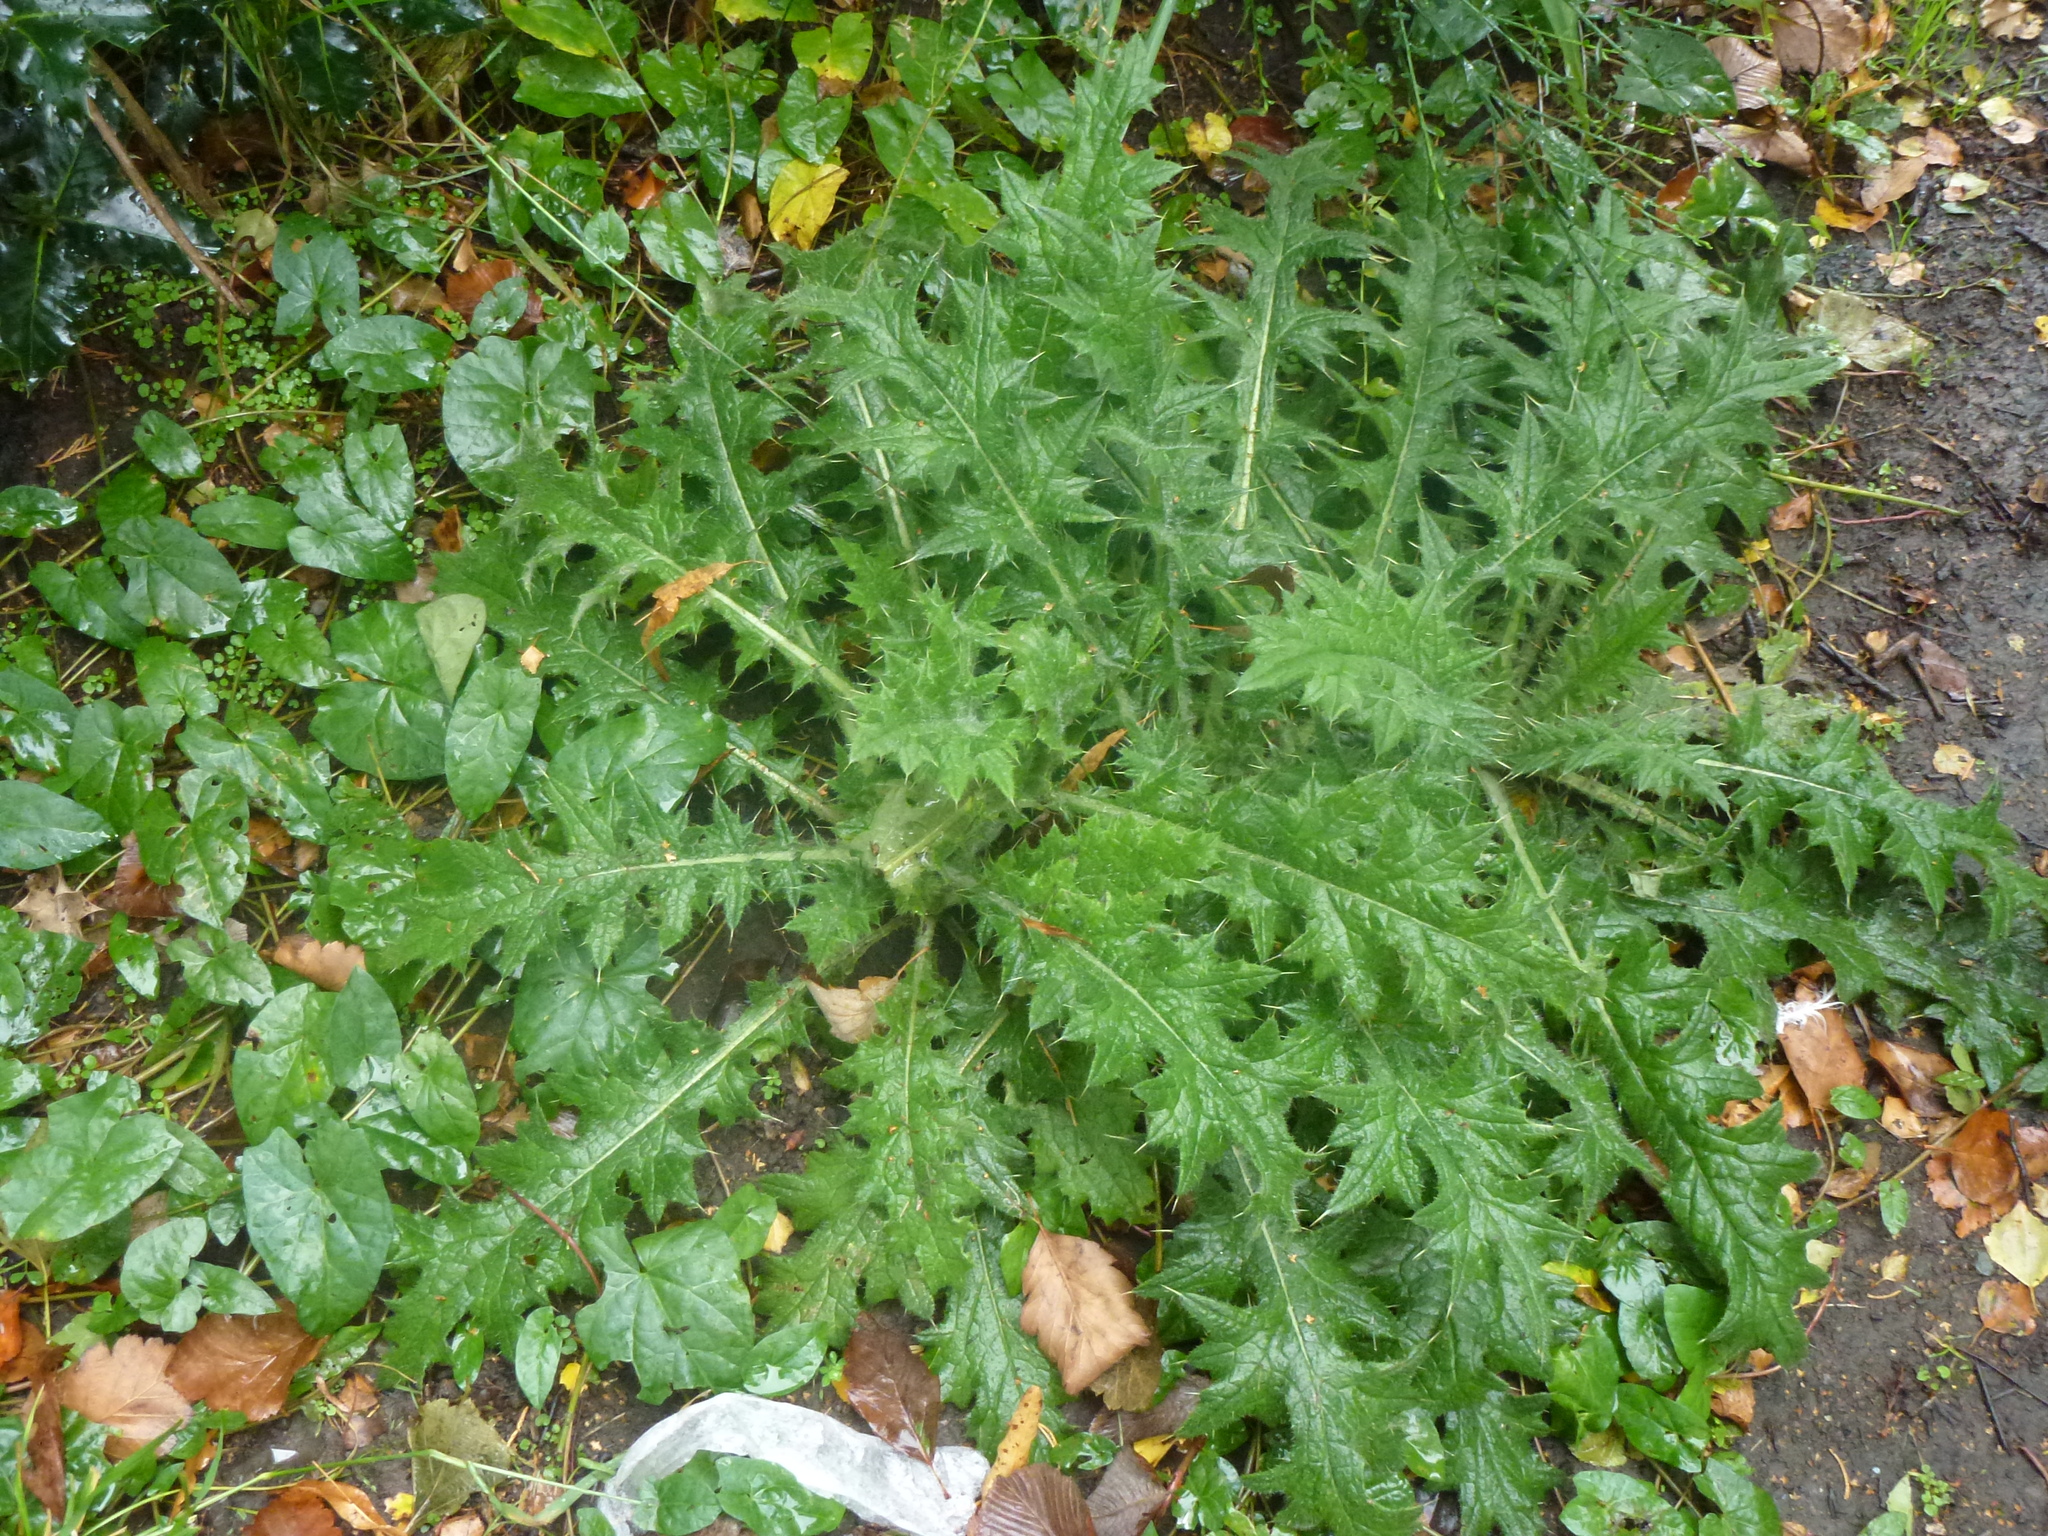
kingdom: Plantae
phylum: Tracheophyta
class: Magnoliopsida
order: Asterales
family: Asteraceae
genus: Cirsium
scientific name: Cirsium vulgare
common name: Bull thistle
